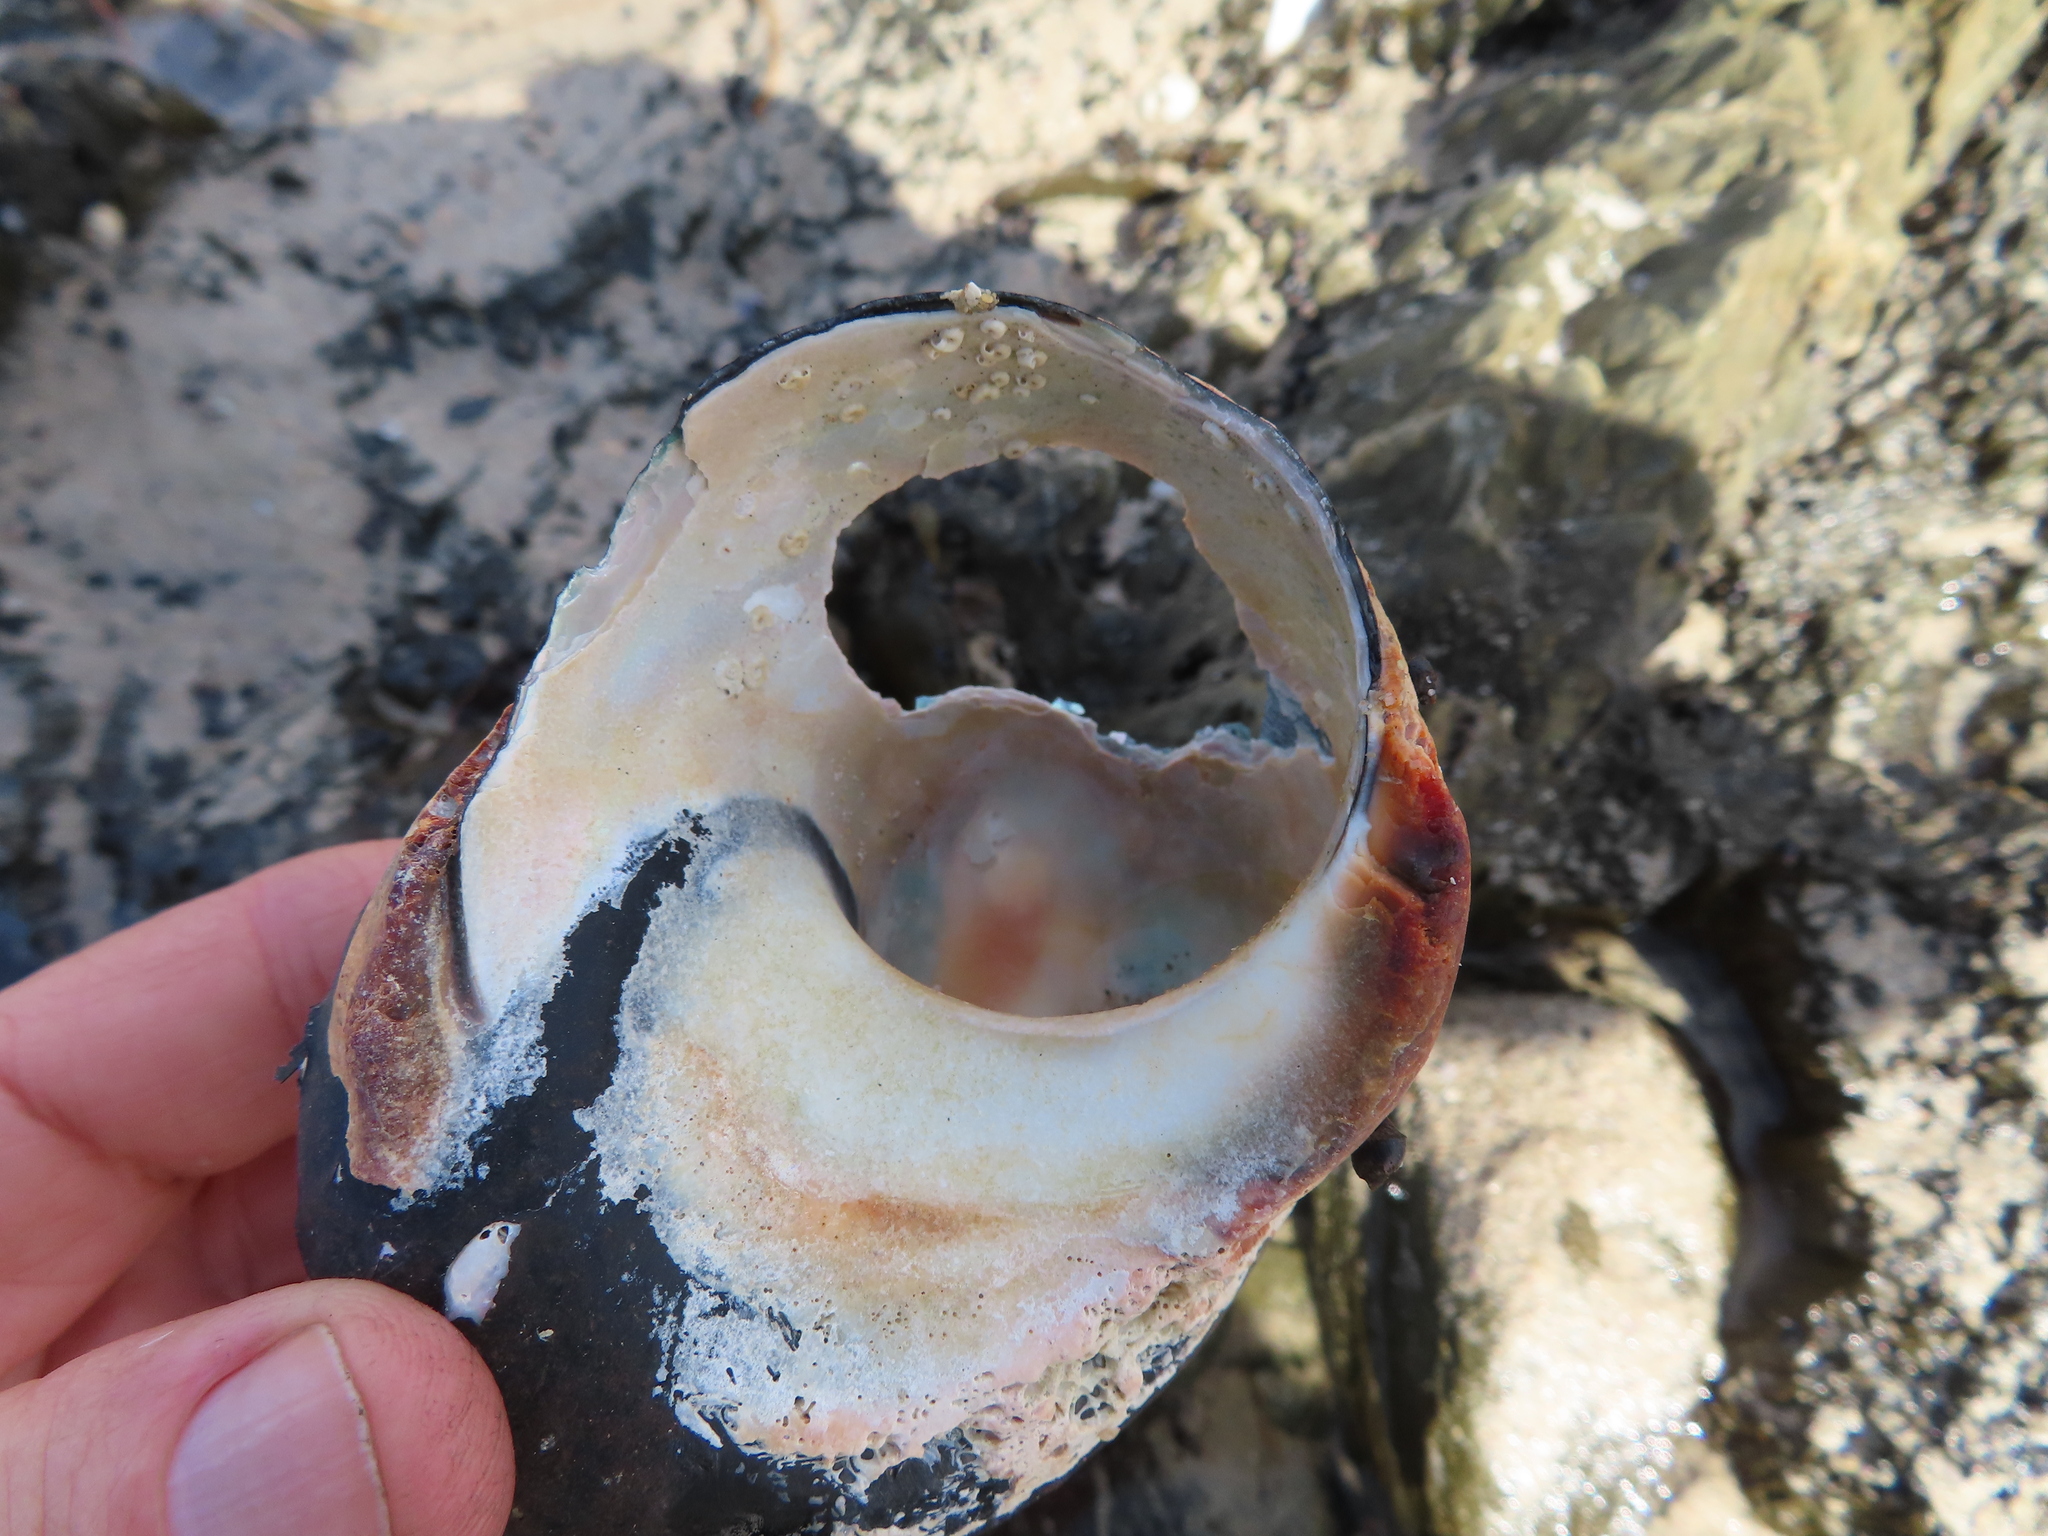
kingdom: Animalia
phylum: Mollusca
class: Gastropoda
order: Trochida
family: Turbinidae
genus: Turbo
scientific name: Turbo sarmaticus
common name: South african turban
